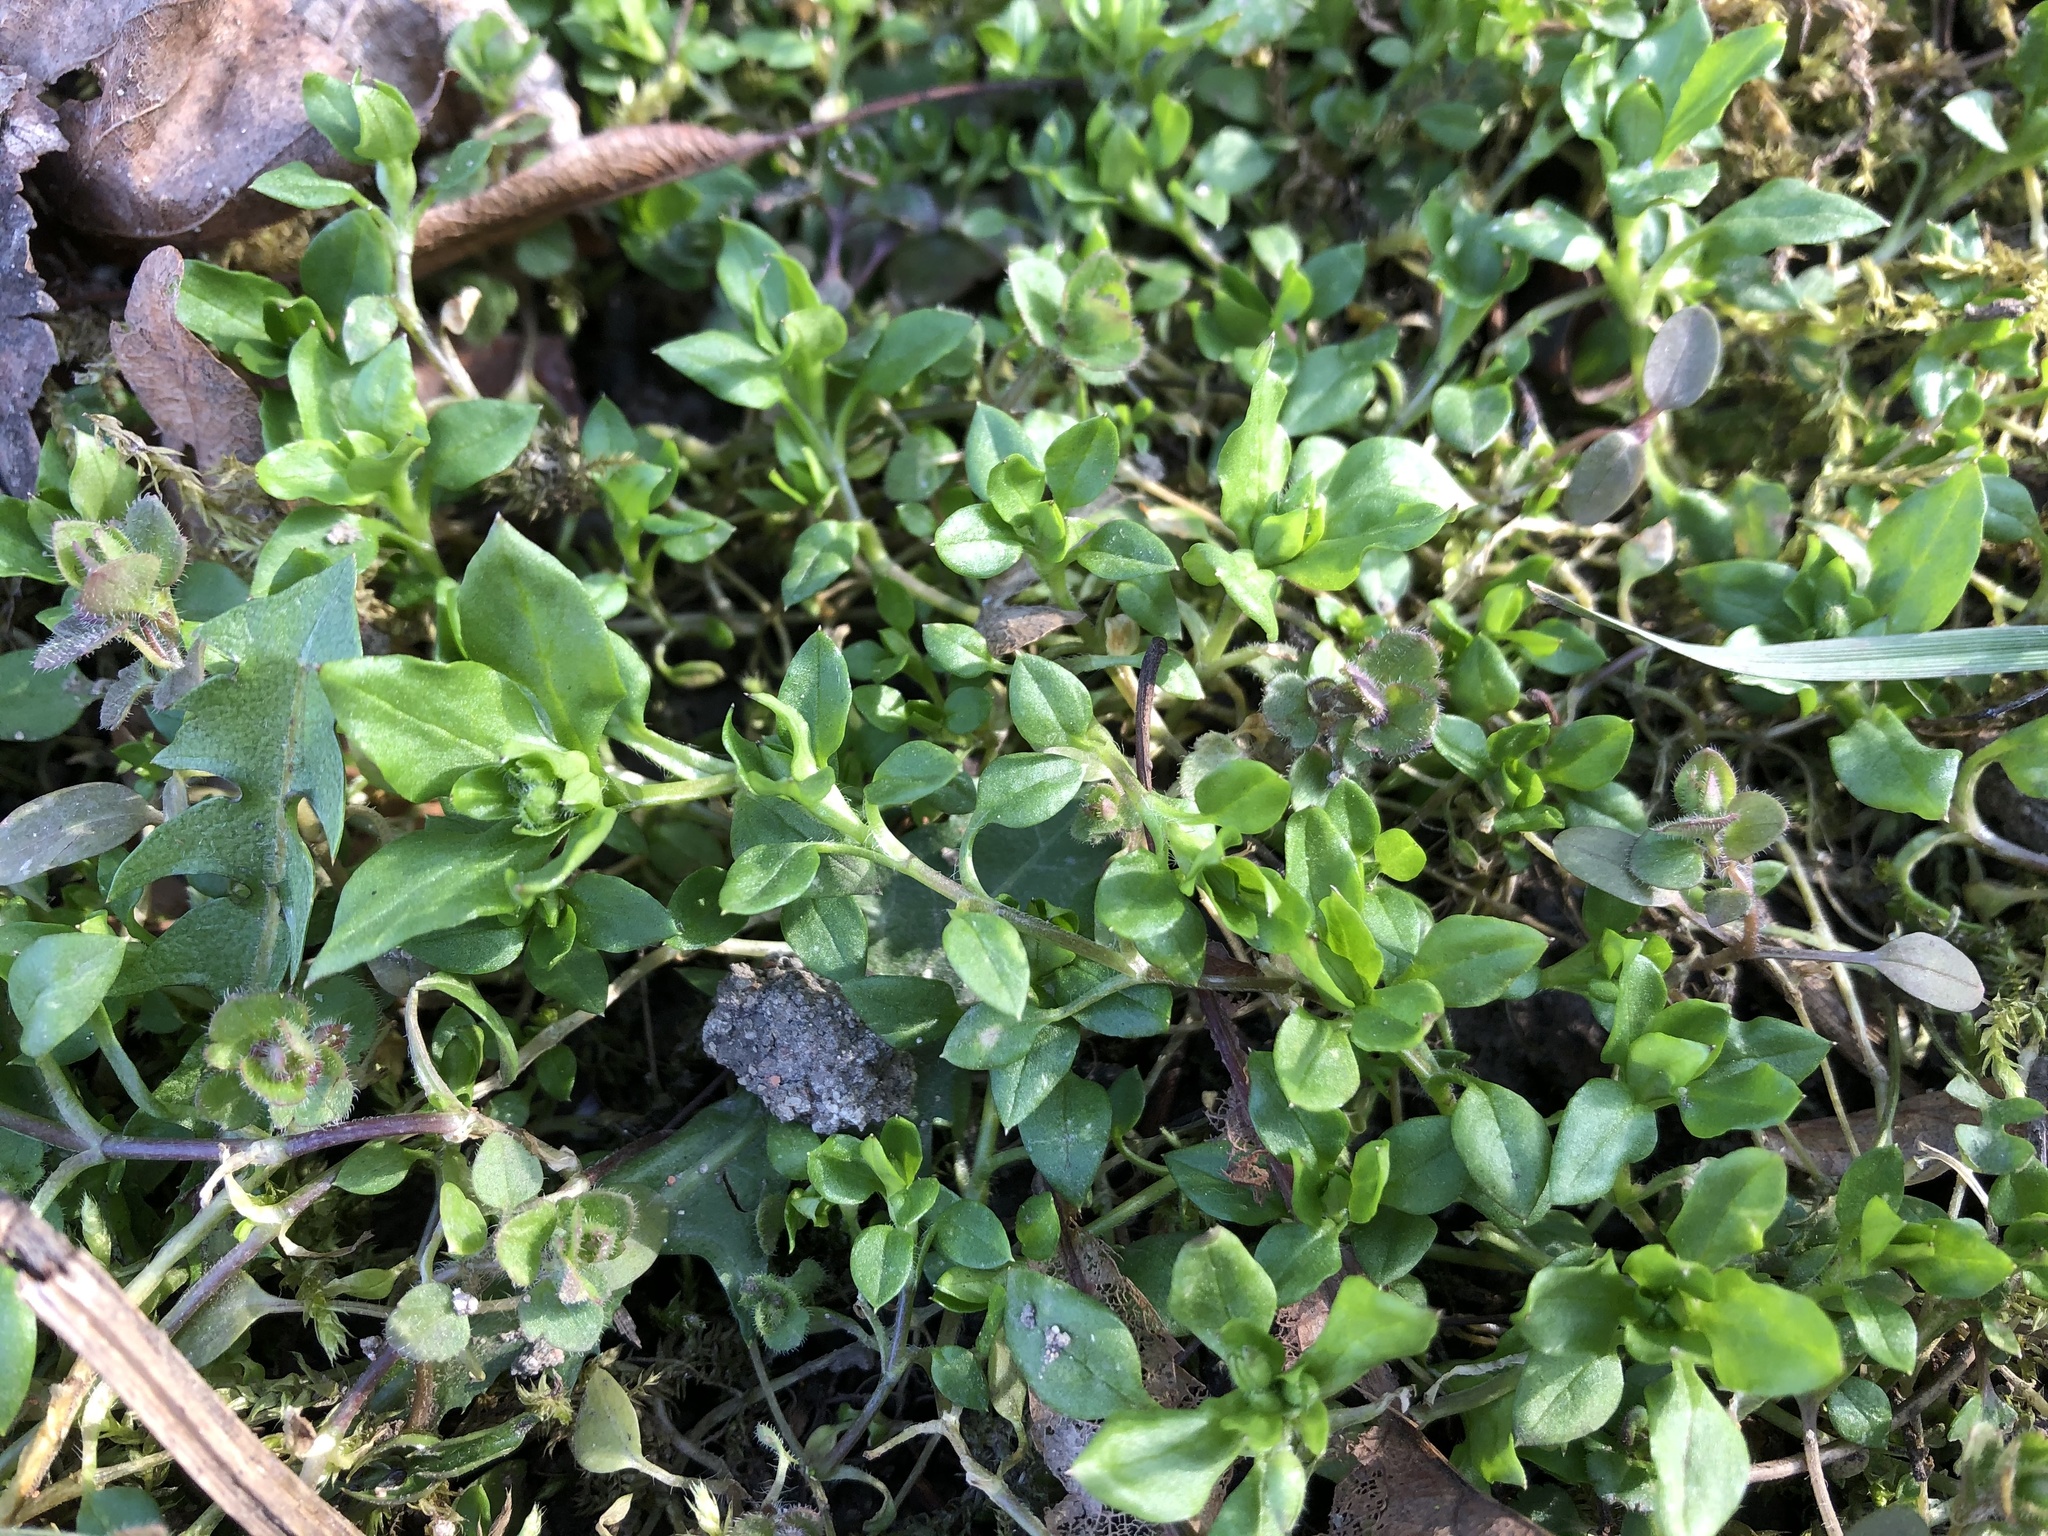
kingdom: Plantae
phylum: Tracheophyta
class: Magnoliopsida
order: Caryophyllales
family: Caryophyllaceae
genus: Stellaria
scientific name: Stellaria media
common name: Common chickweed
